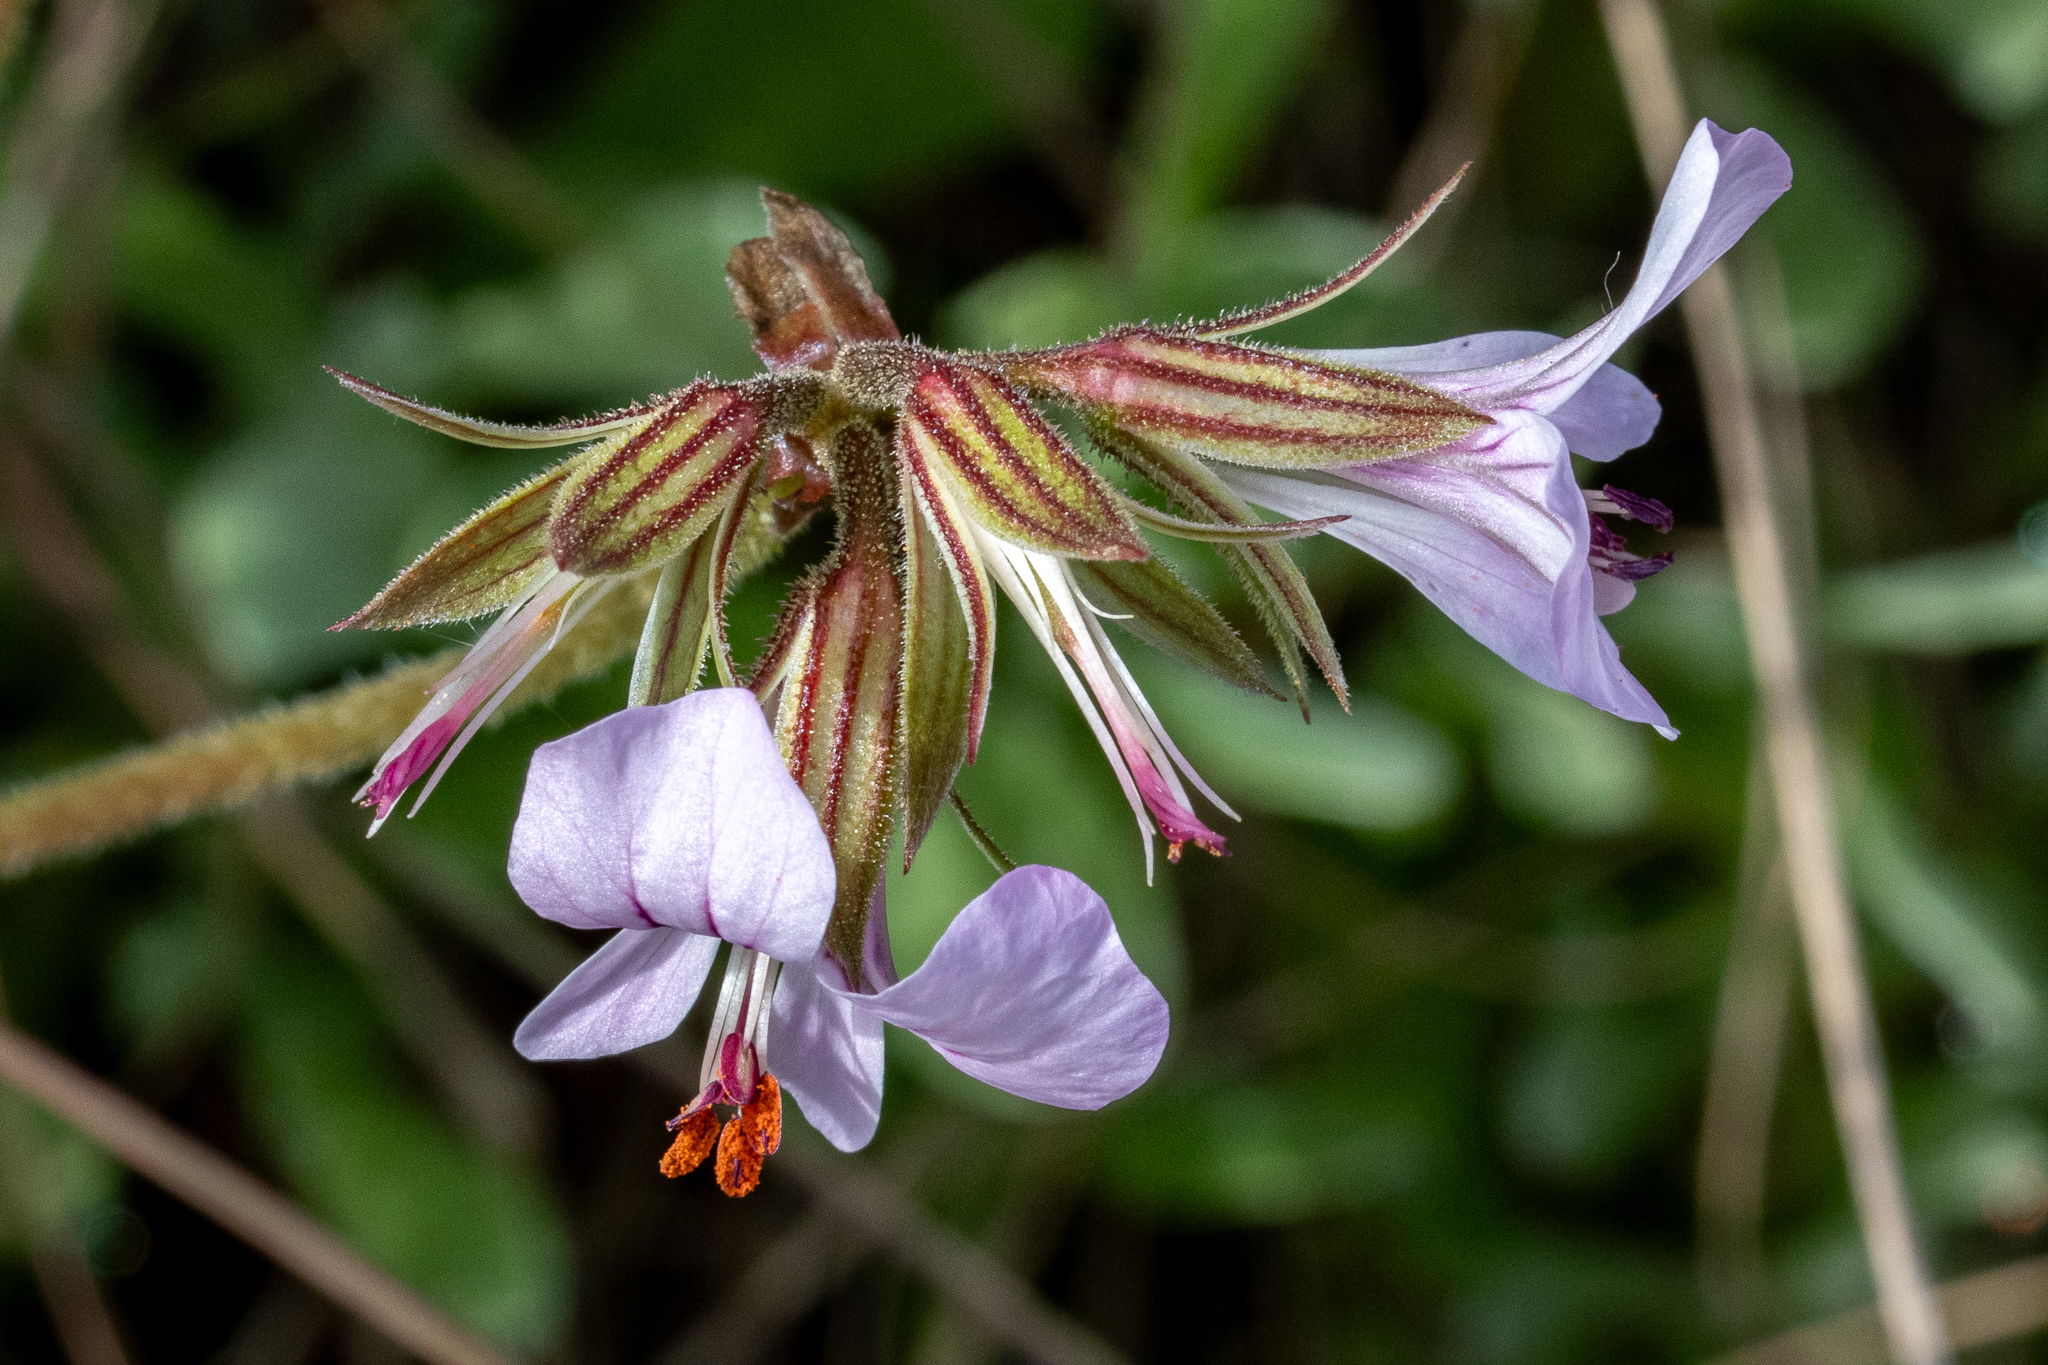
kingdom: Plantae
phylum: Tracheophyta
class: Magnoliopsida
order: Geraniales
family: Geraniaceae
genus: Pelargonium
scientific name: Pelargonium myrrhifolium
